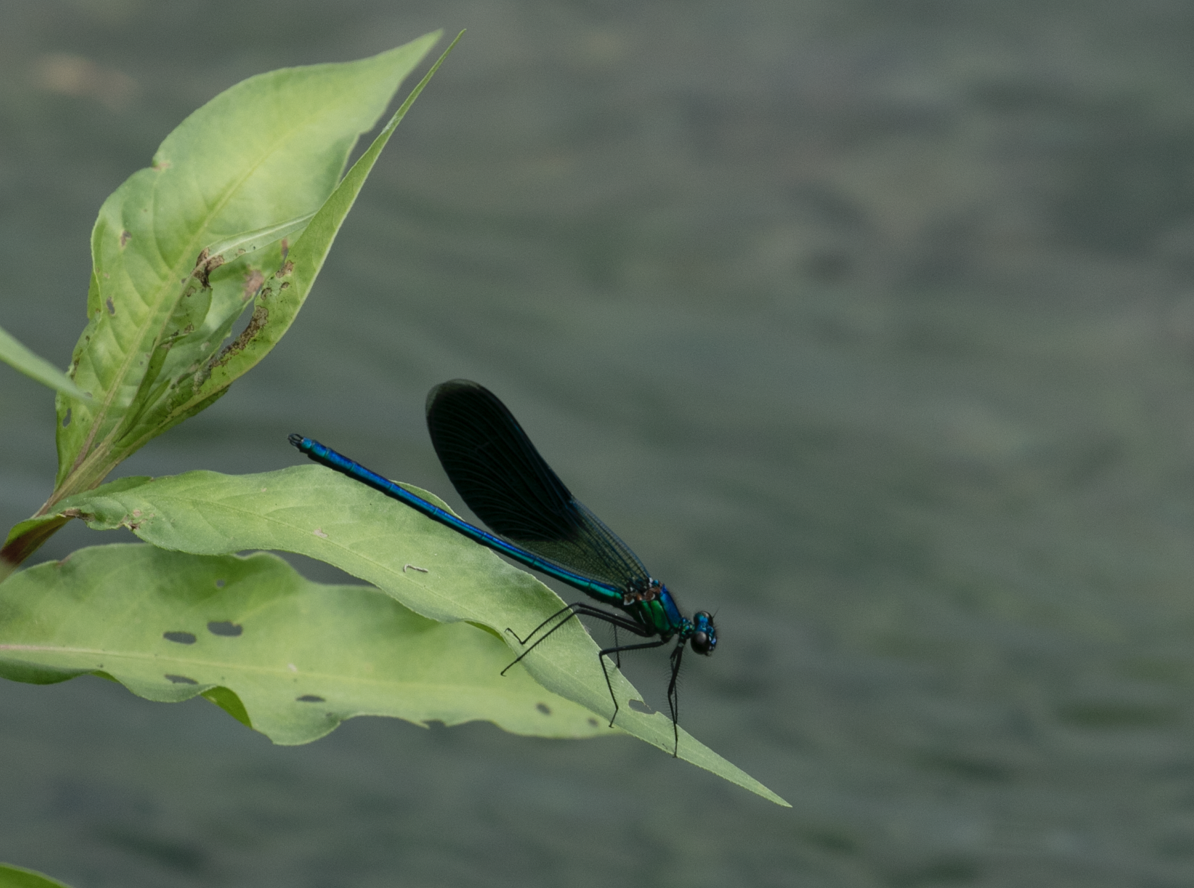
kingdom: Animalia
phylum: Arthropoda
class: Insecta
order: Odonata
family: Calopterygidae
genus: Calopteryx
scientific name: Calopteryx splendens
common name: Banded demoiselle
